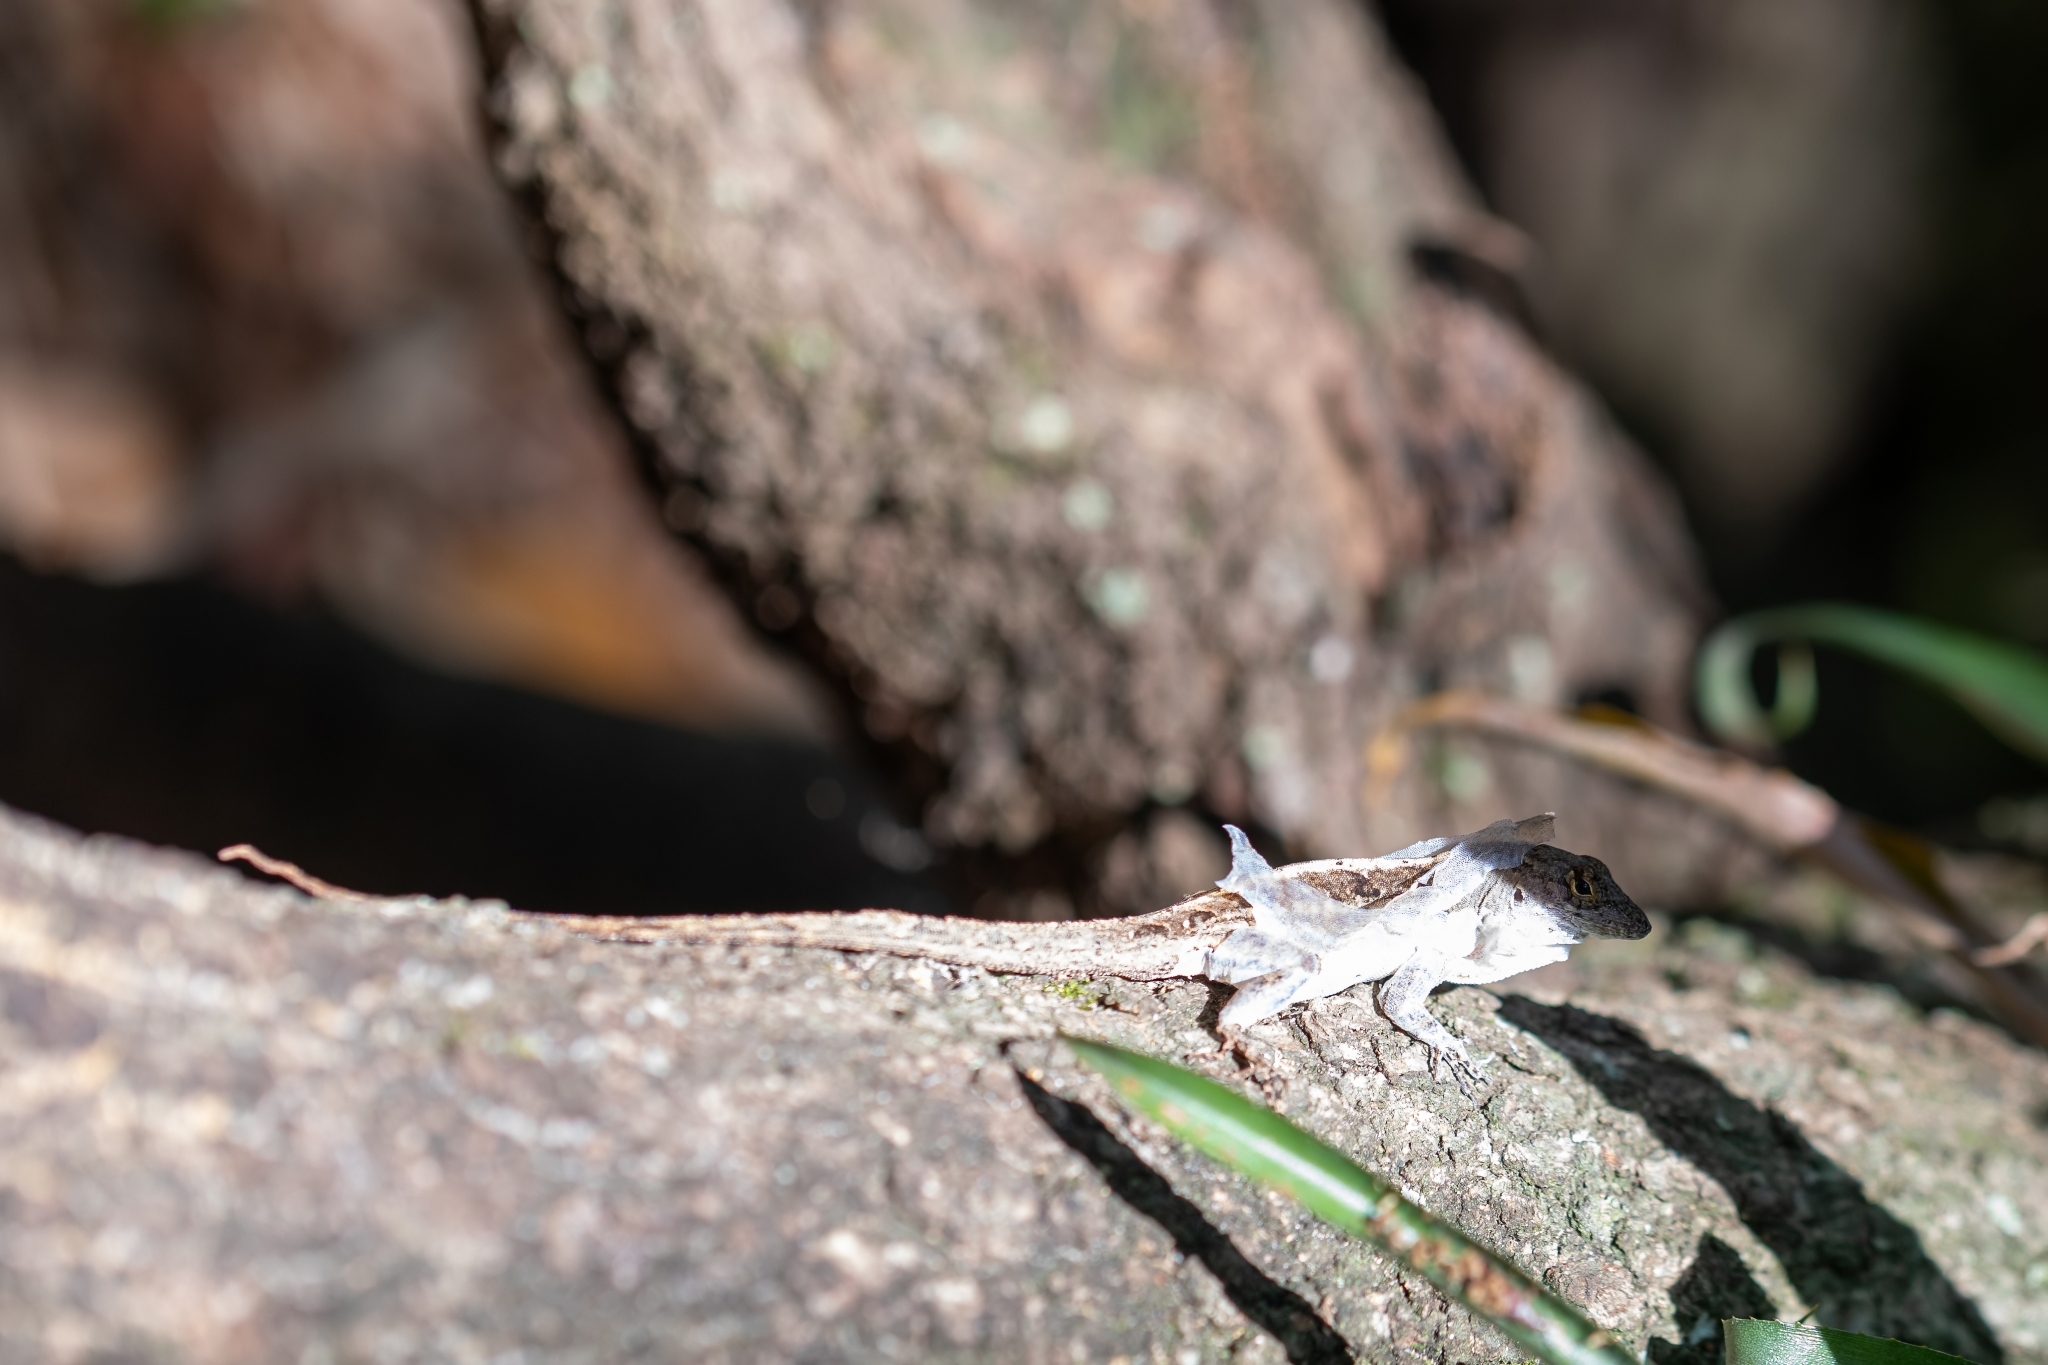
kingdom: Animalia
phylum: Chordata
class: Squamata
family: Dactyloidae
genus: Anolis
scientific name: Anolis sagrei
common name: Brown anole
